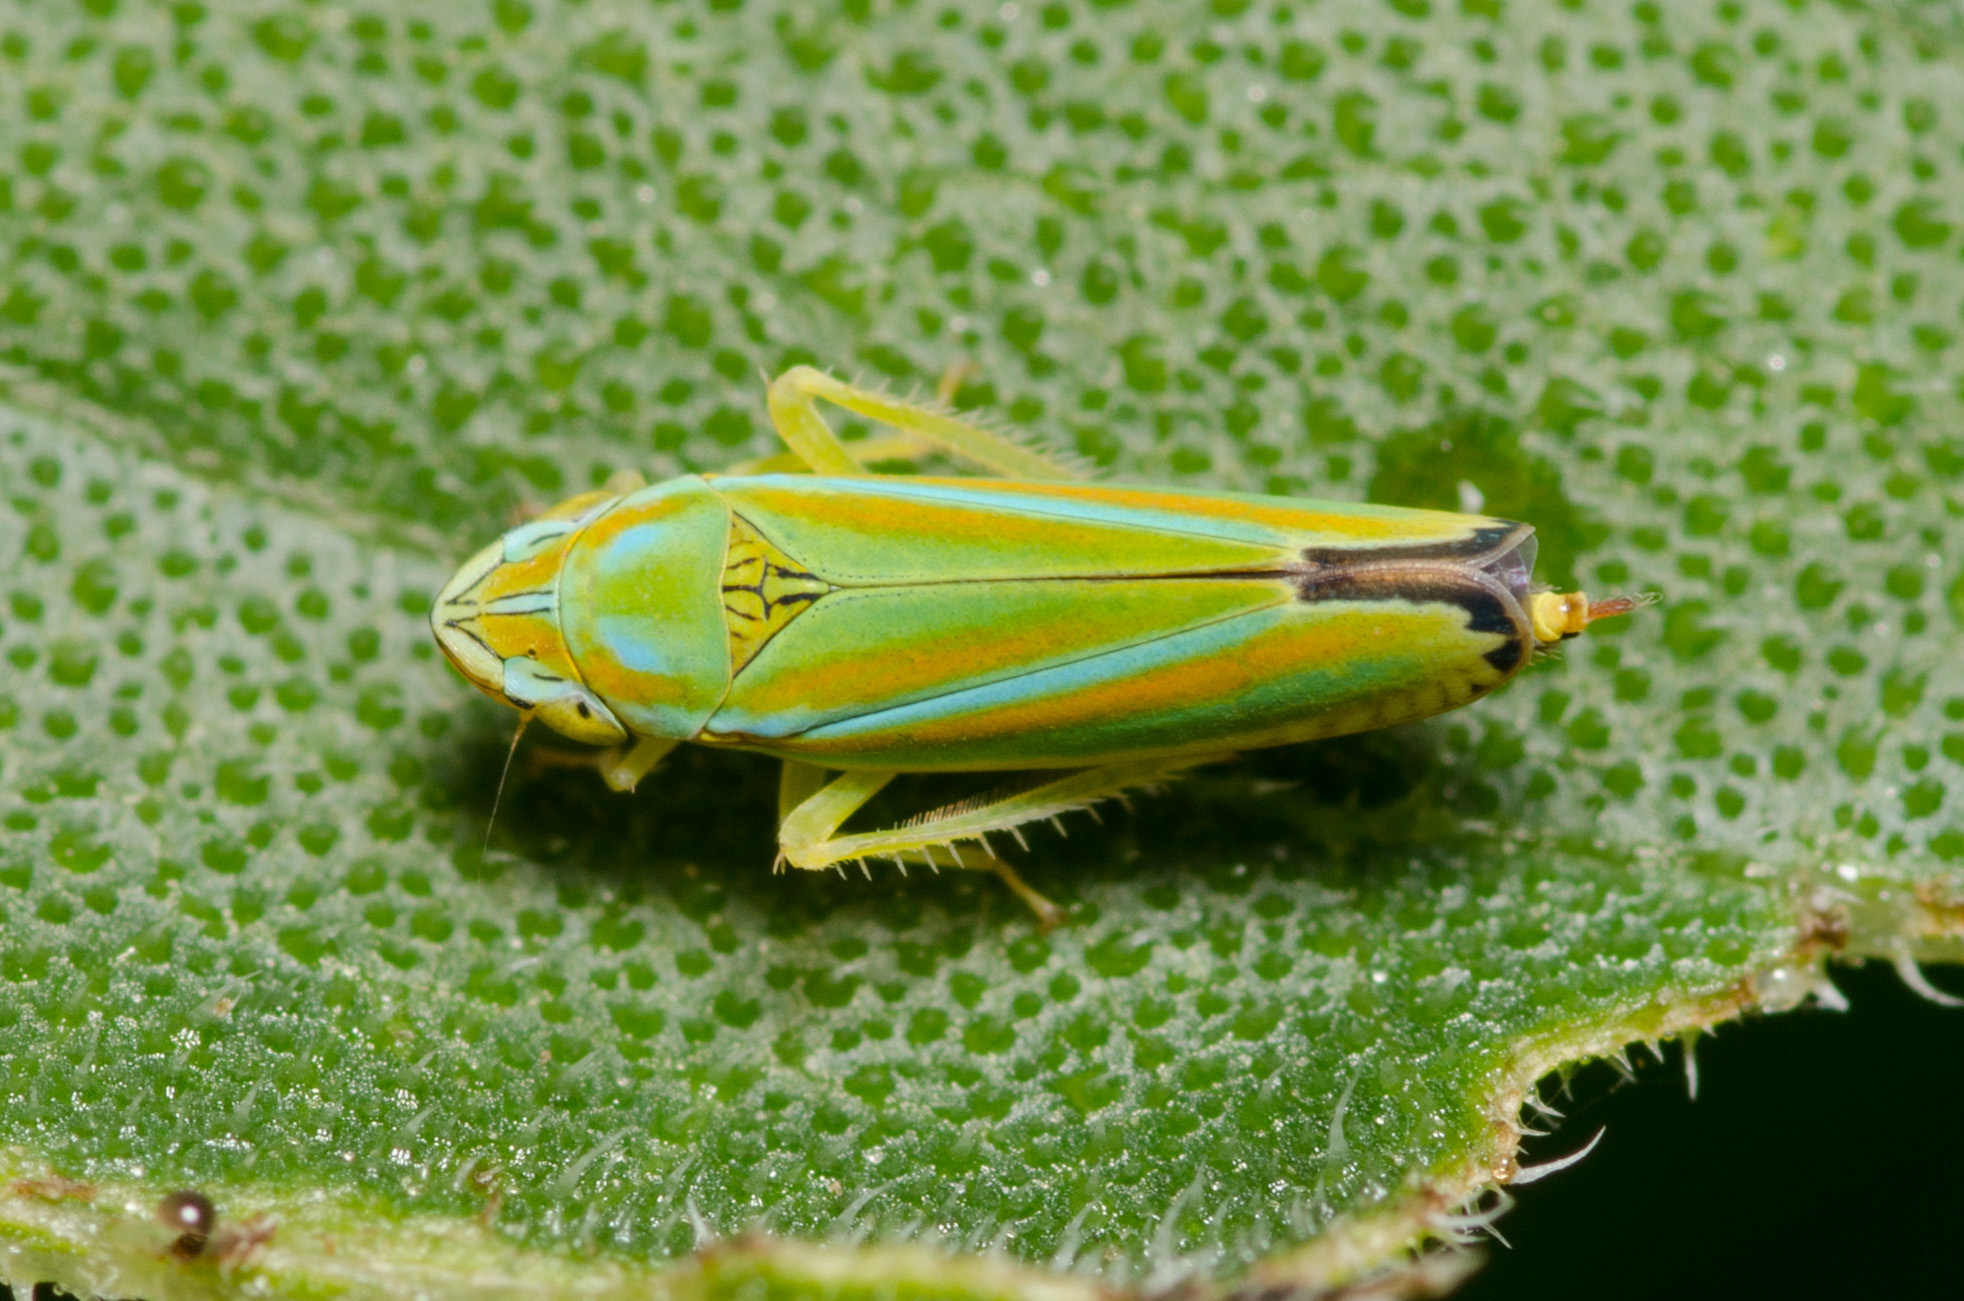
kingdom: Animalia
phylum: Arthropoda
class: Insecta
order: Hemiptera
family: Cicadellidae
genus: Graphocephala
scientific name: Graphocephala versuta
